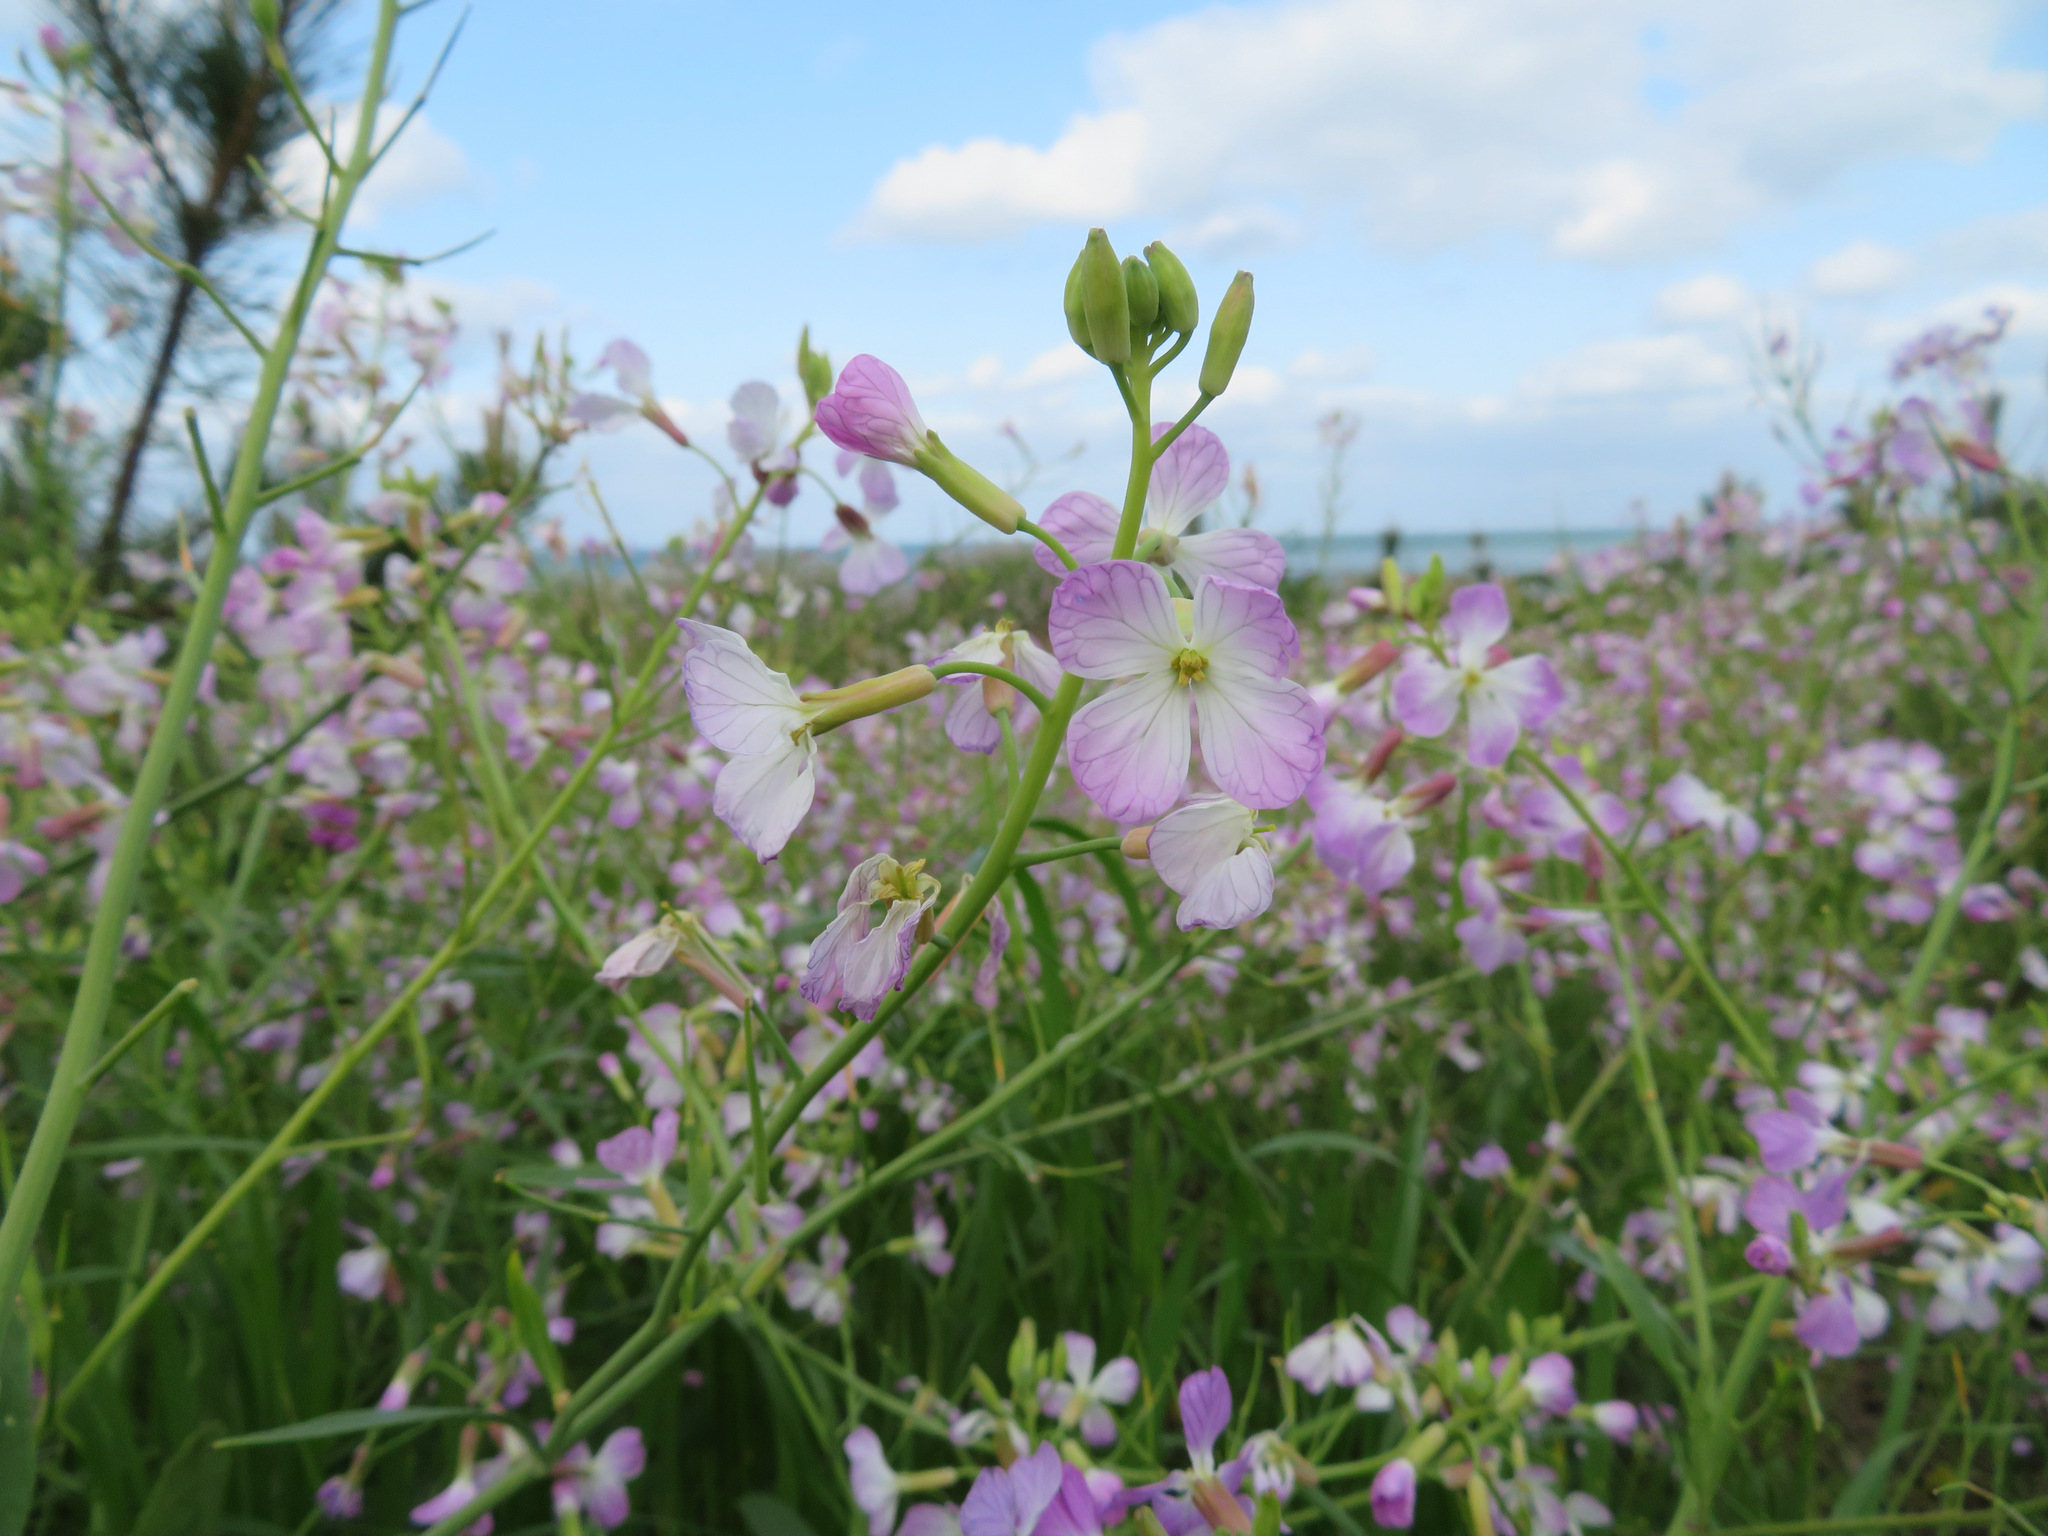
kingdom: Plantae
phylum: Tracheophyta
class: Magnoliopsida
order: Brassicales
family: Brassicaceae
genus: Raphanus
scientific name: Raphanus sativus
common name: Cultivated radish
